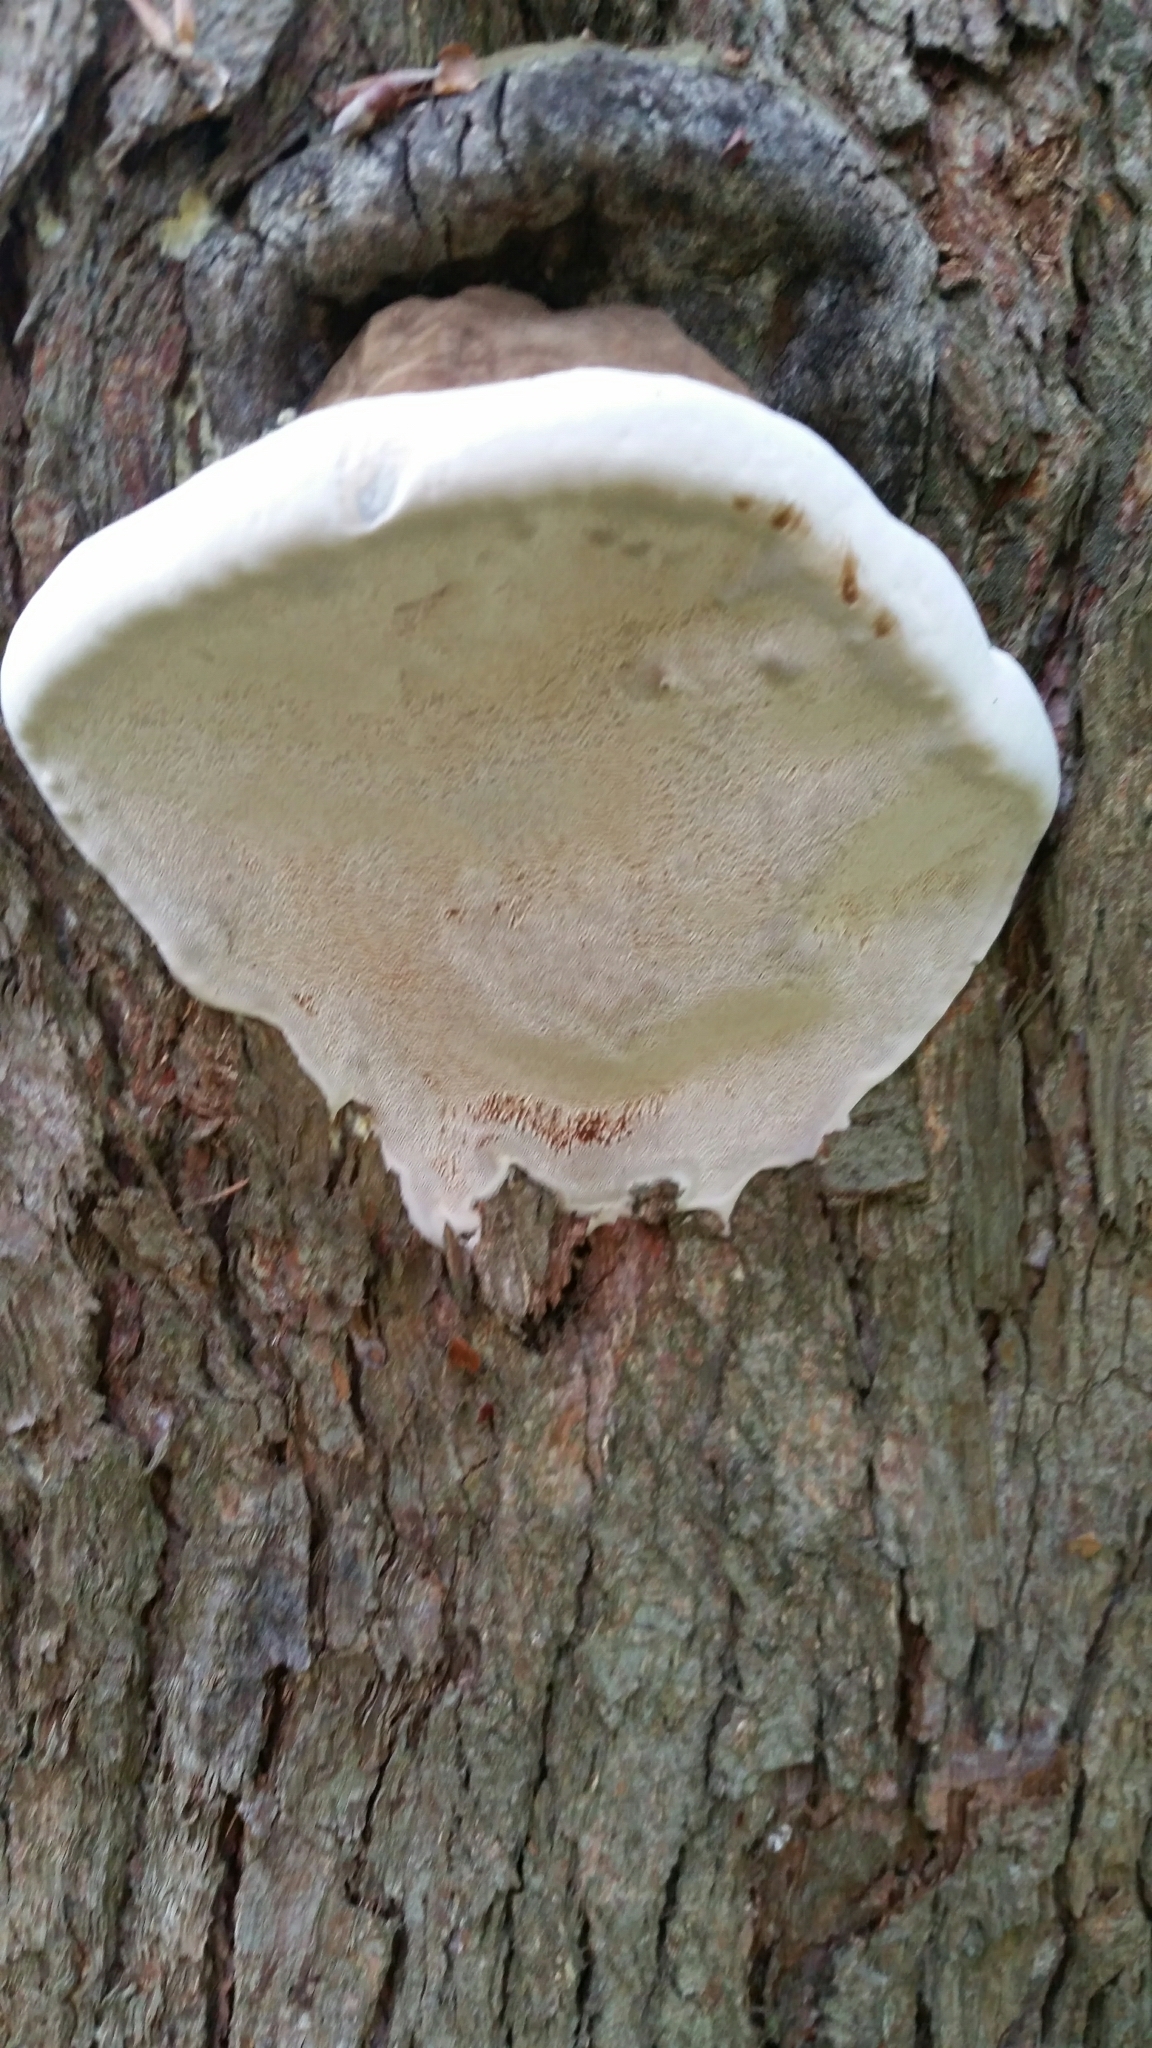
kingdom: Fungi
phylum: Basidiomycota
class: Agaricomycetes
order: Polyporales
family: Polyporaceae
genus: Ganoderma
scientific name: Ganoderma applanatum
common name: Artist's bracket
